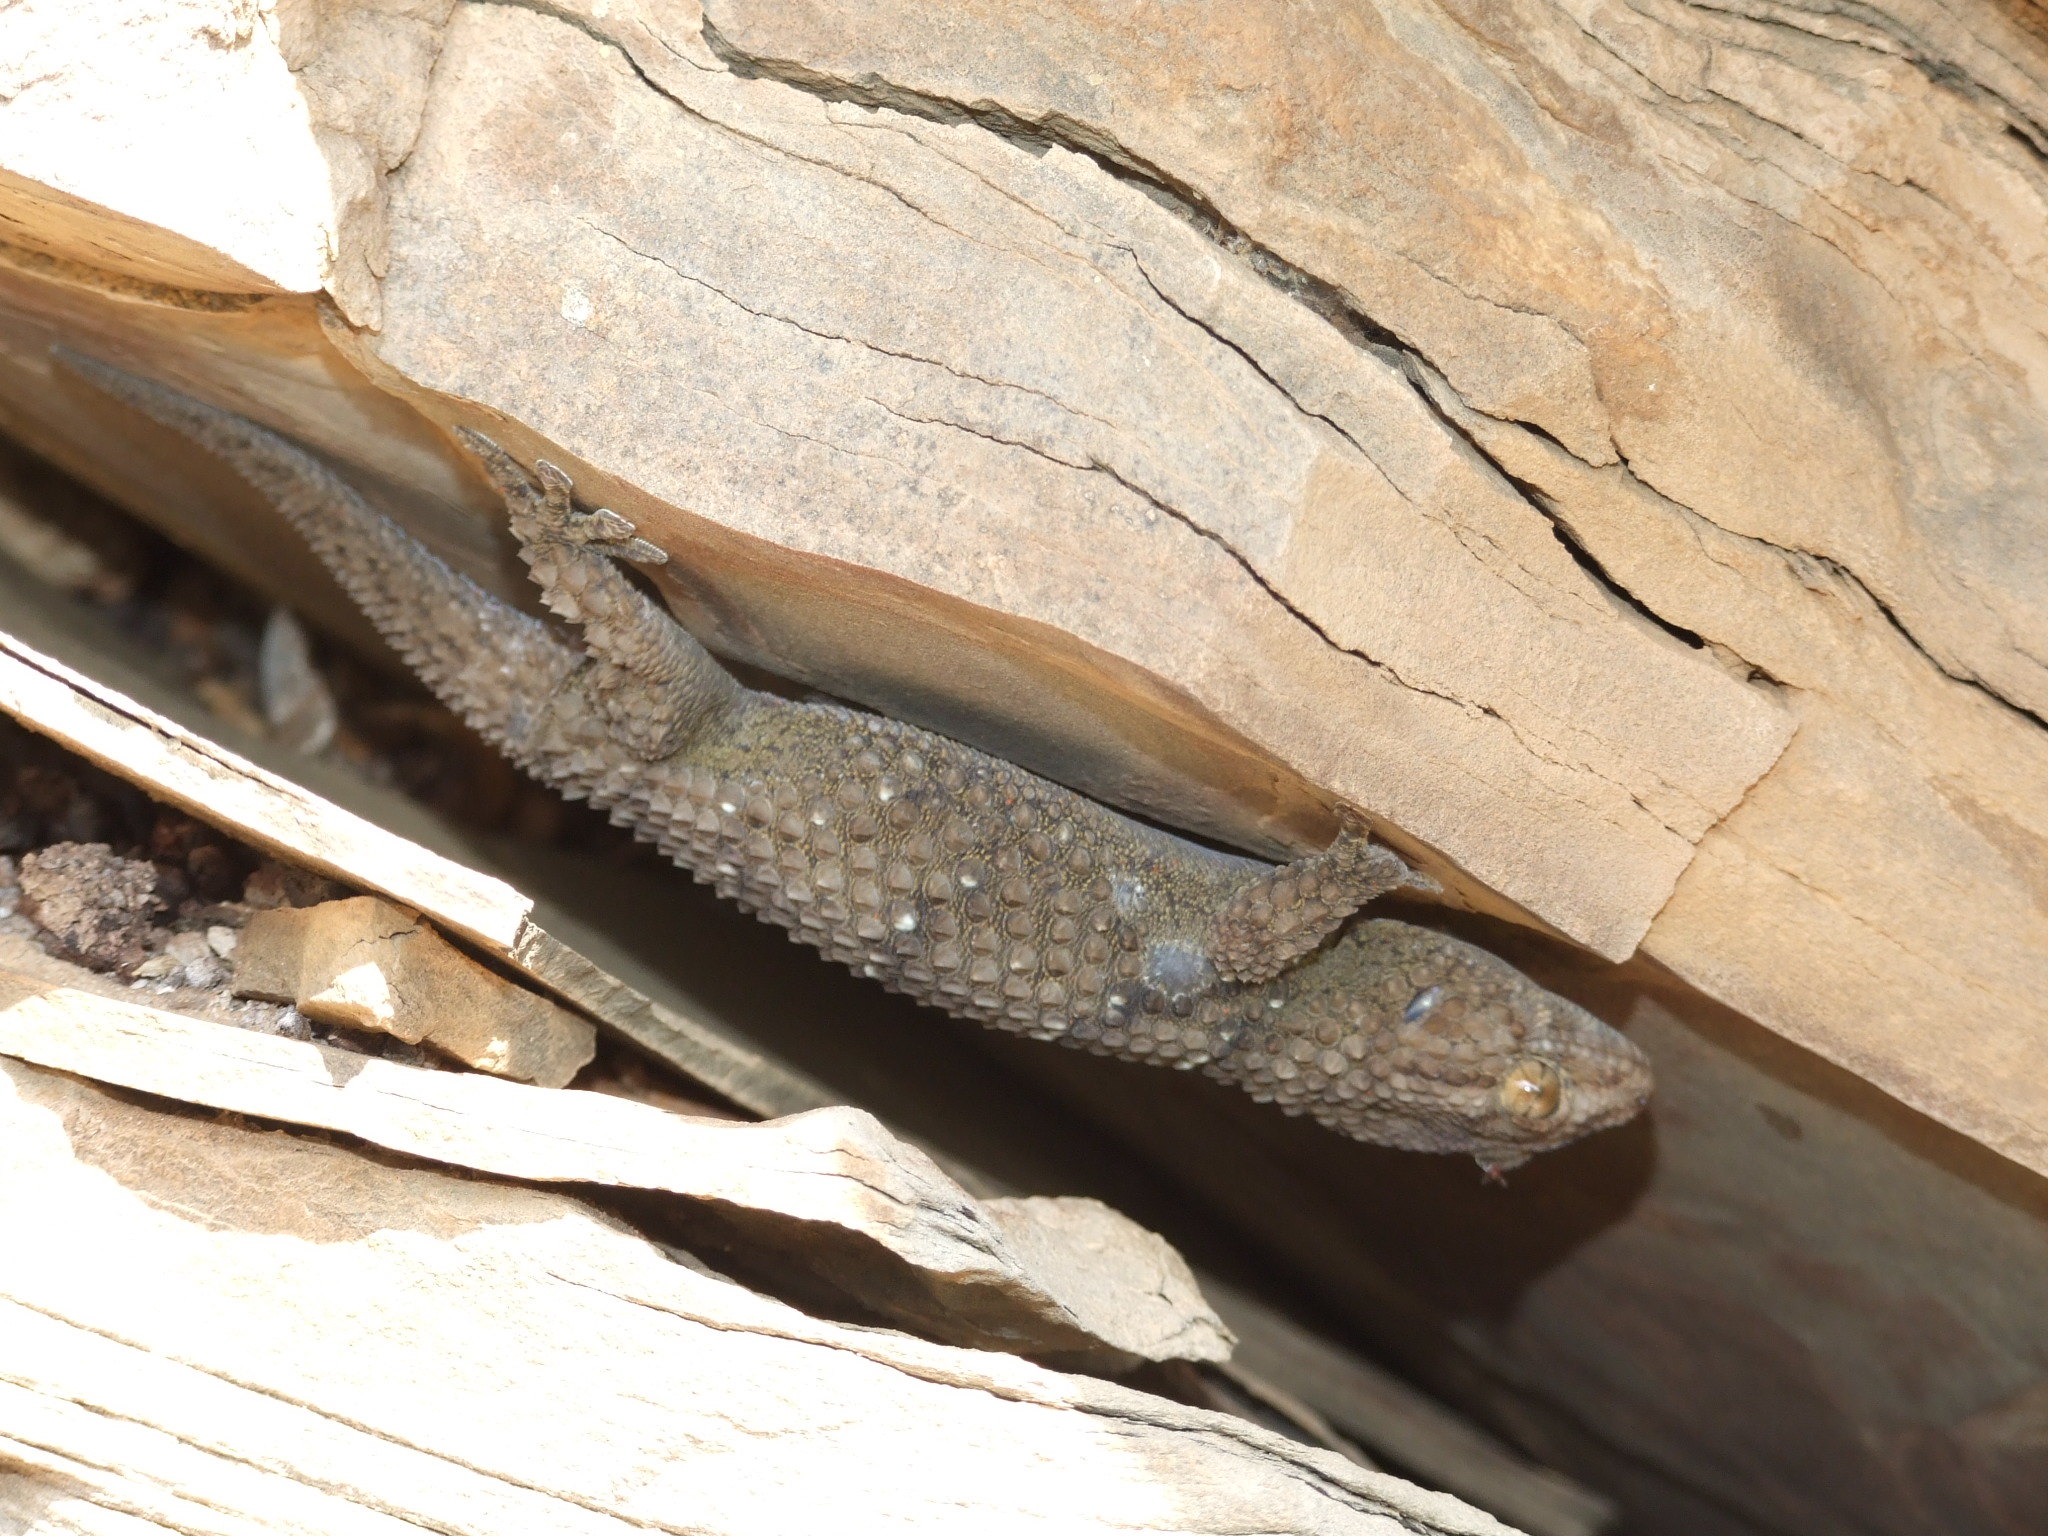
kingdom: Animalia
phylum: Chordata
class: Squamata
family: Gekkonidae
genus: Chondrodactylus
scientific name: Chondrodactylus bibronii
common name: Bibron's gecko
